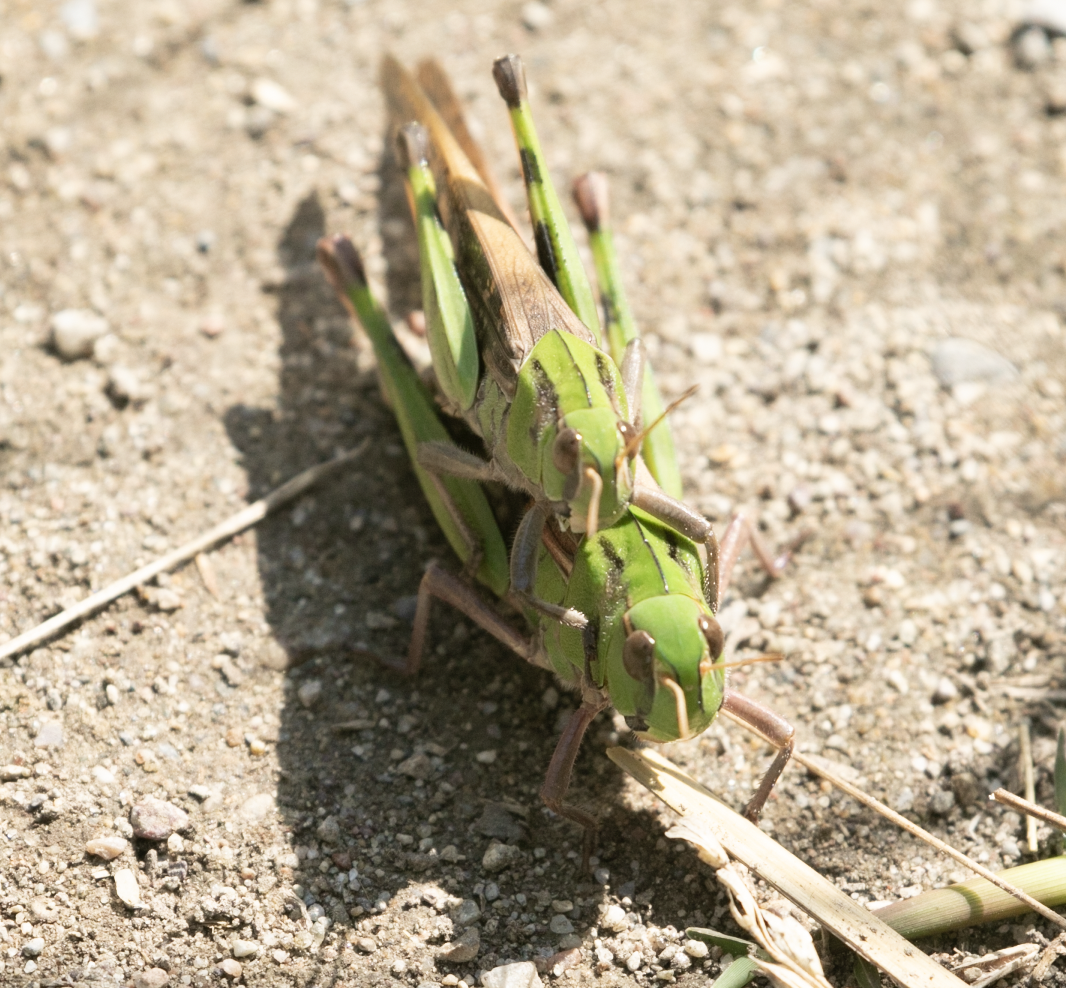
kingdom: Animalia
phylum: Arthropoda
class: Insecta
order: Orthoptera
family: Acrididae
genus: Locusta
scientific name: Locusta migratoria
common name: Migratory locust
